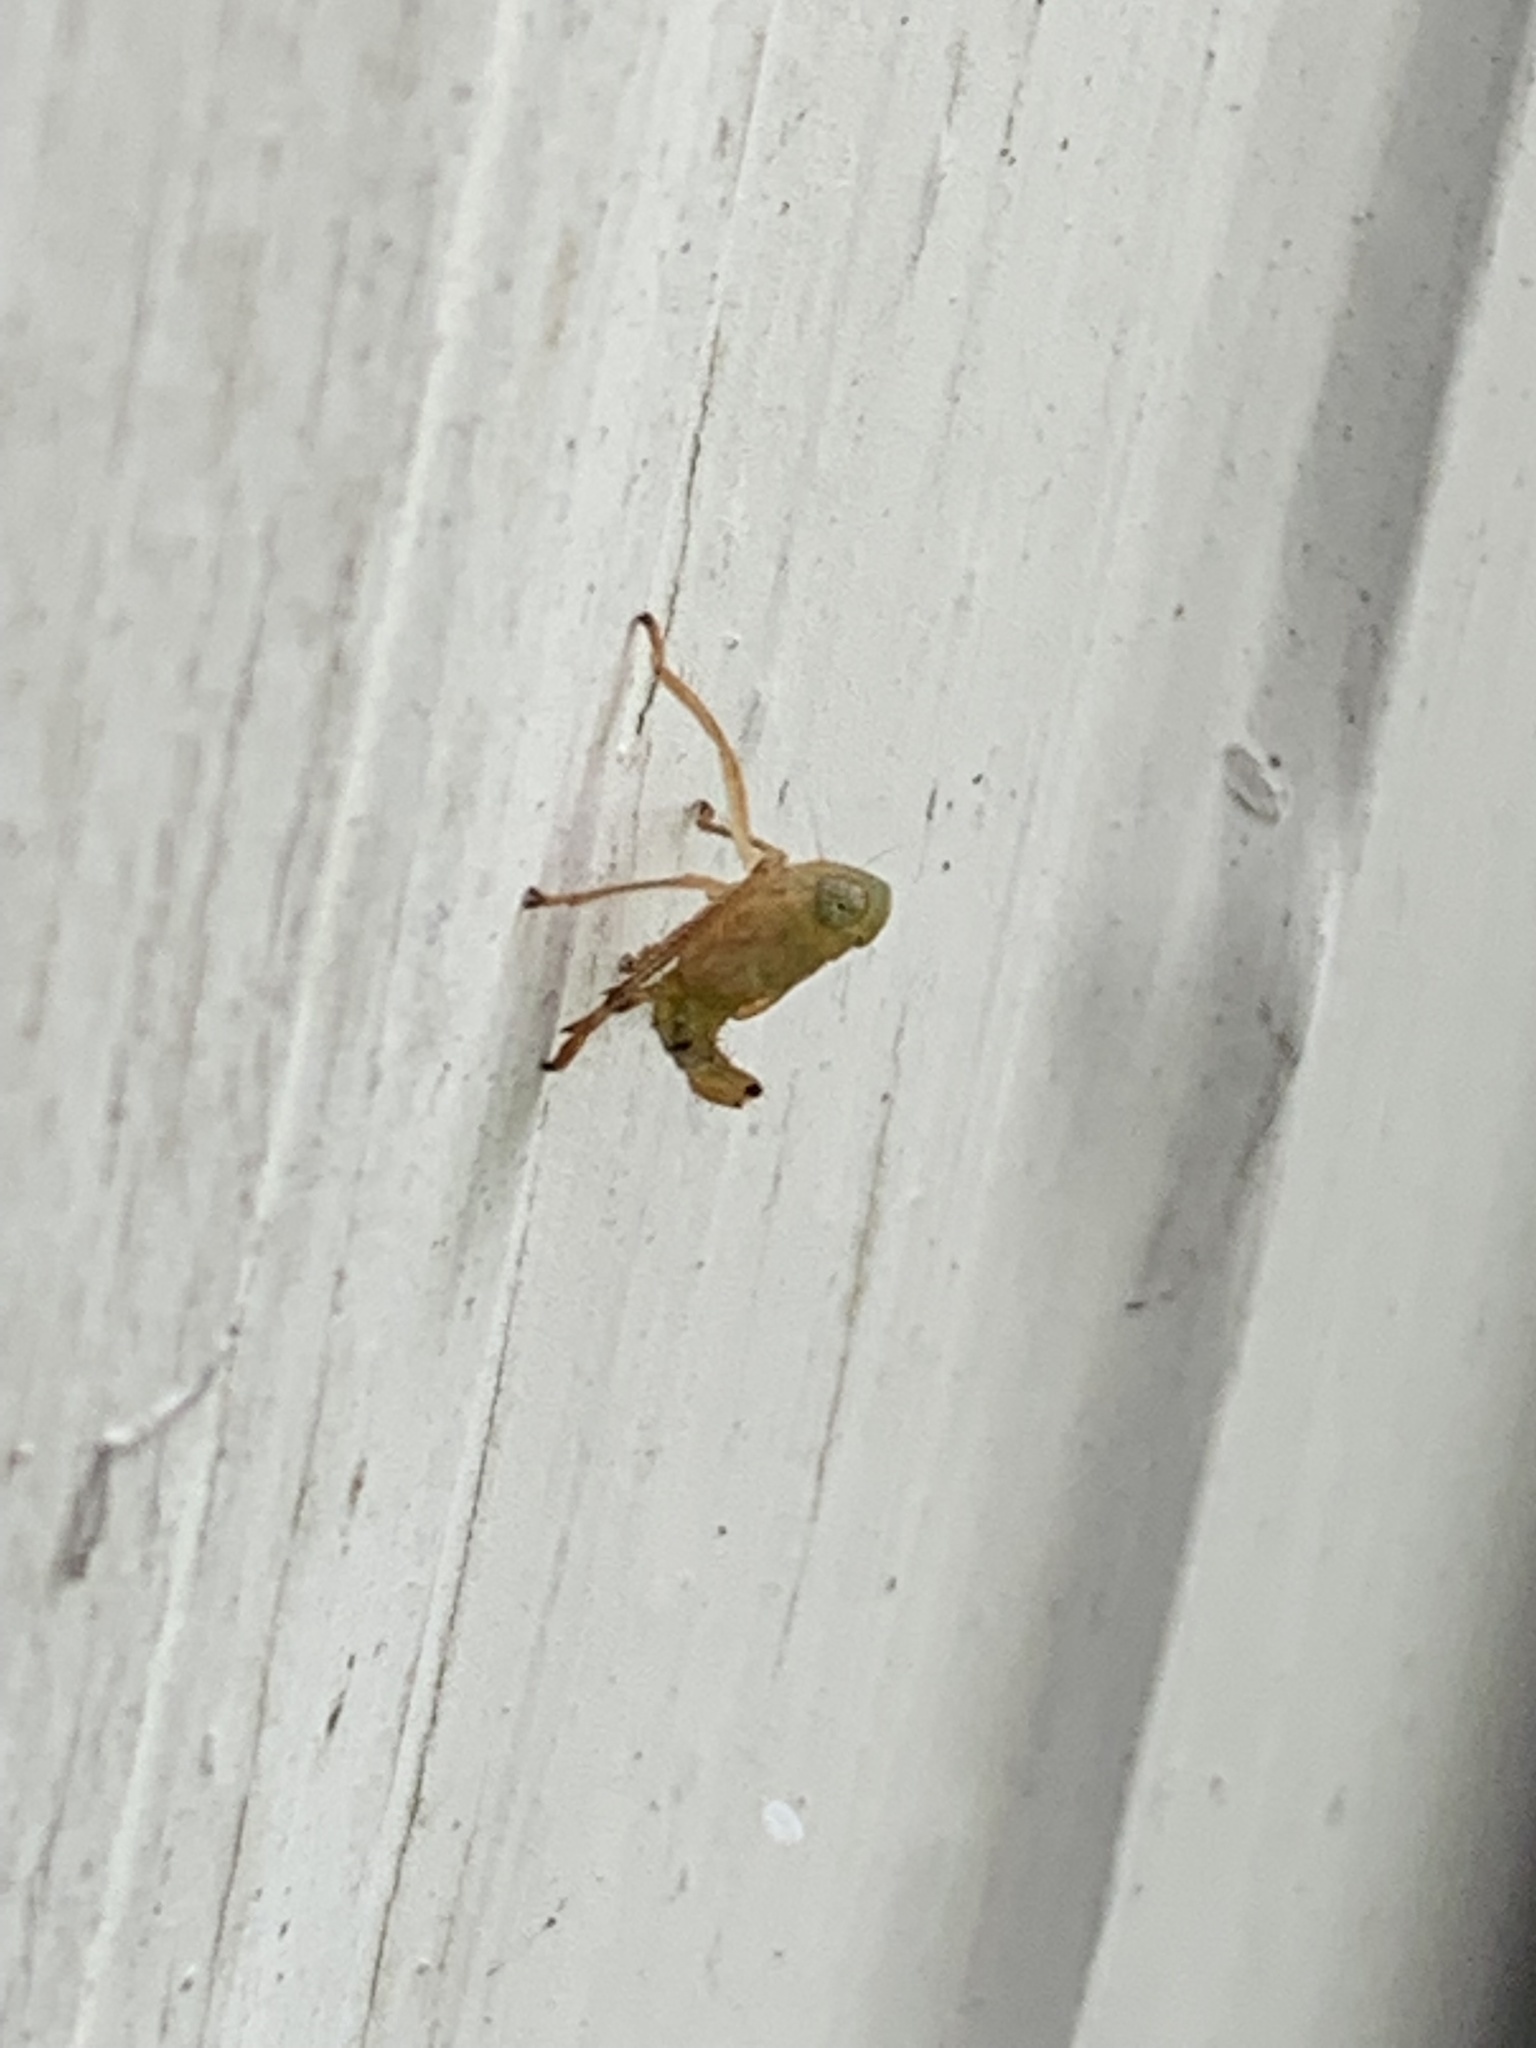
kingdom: Animalia
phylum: Arthropoda
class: Insecta
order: Hemiptera
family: Cicadellidae
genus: Jikradia
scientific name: Jikradia olitoria
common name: Coppery leafhopper
